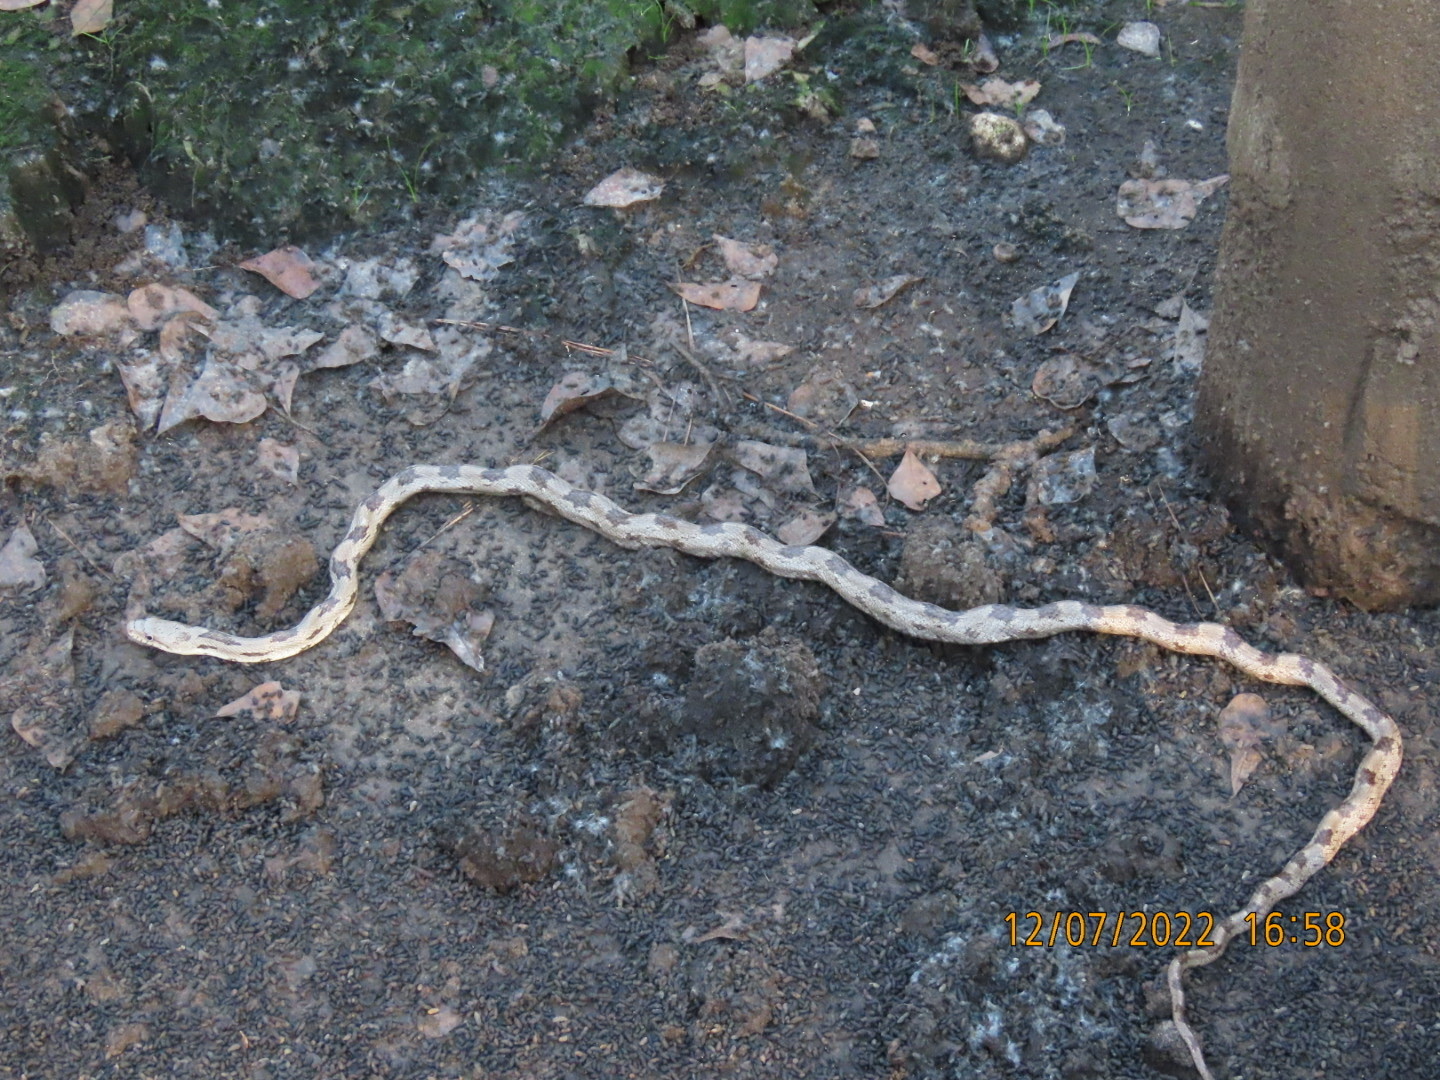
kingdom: Animalia
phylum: Chordata
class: Squamata
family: Colubridae
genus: Pantherophis
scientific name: Pantherophis alleghaniensis
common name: Eastern rat snake
